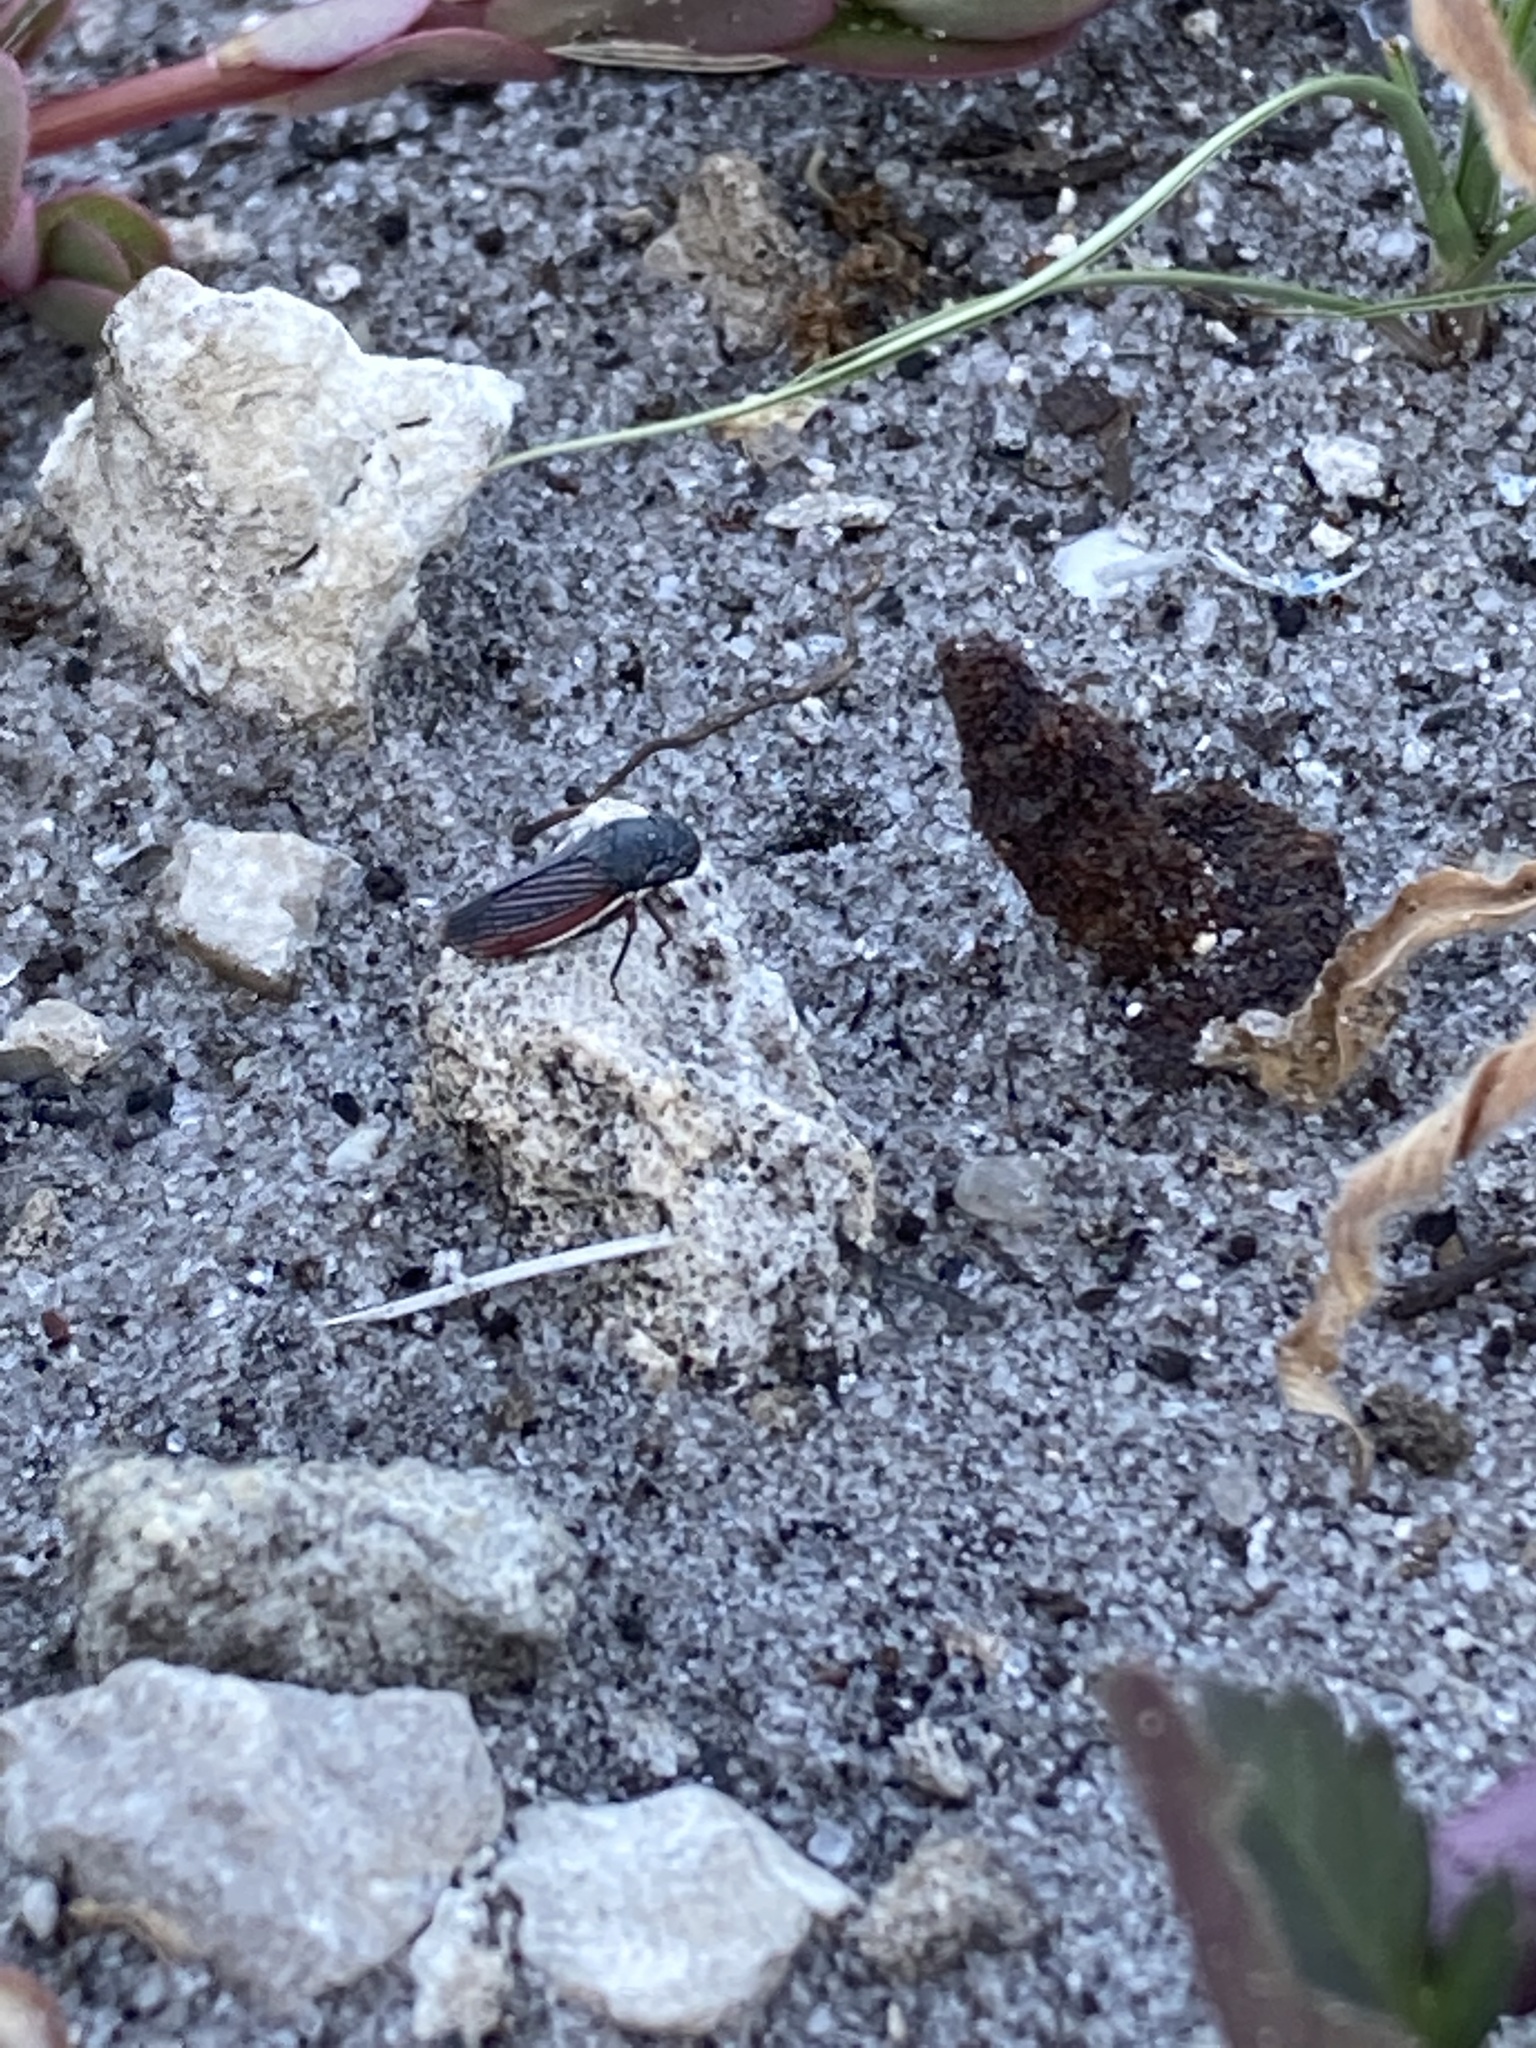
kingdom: Animalia
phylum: Arthropoda
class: Insecta
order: Hemiptera
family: Cicadellidae
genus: Cuerna
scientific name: Cuerna costalis
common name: Lateral-lined sharpshooter
